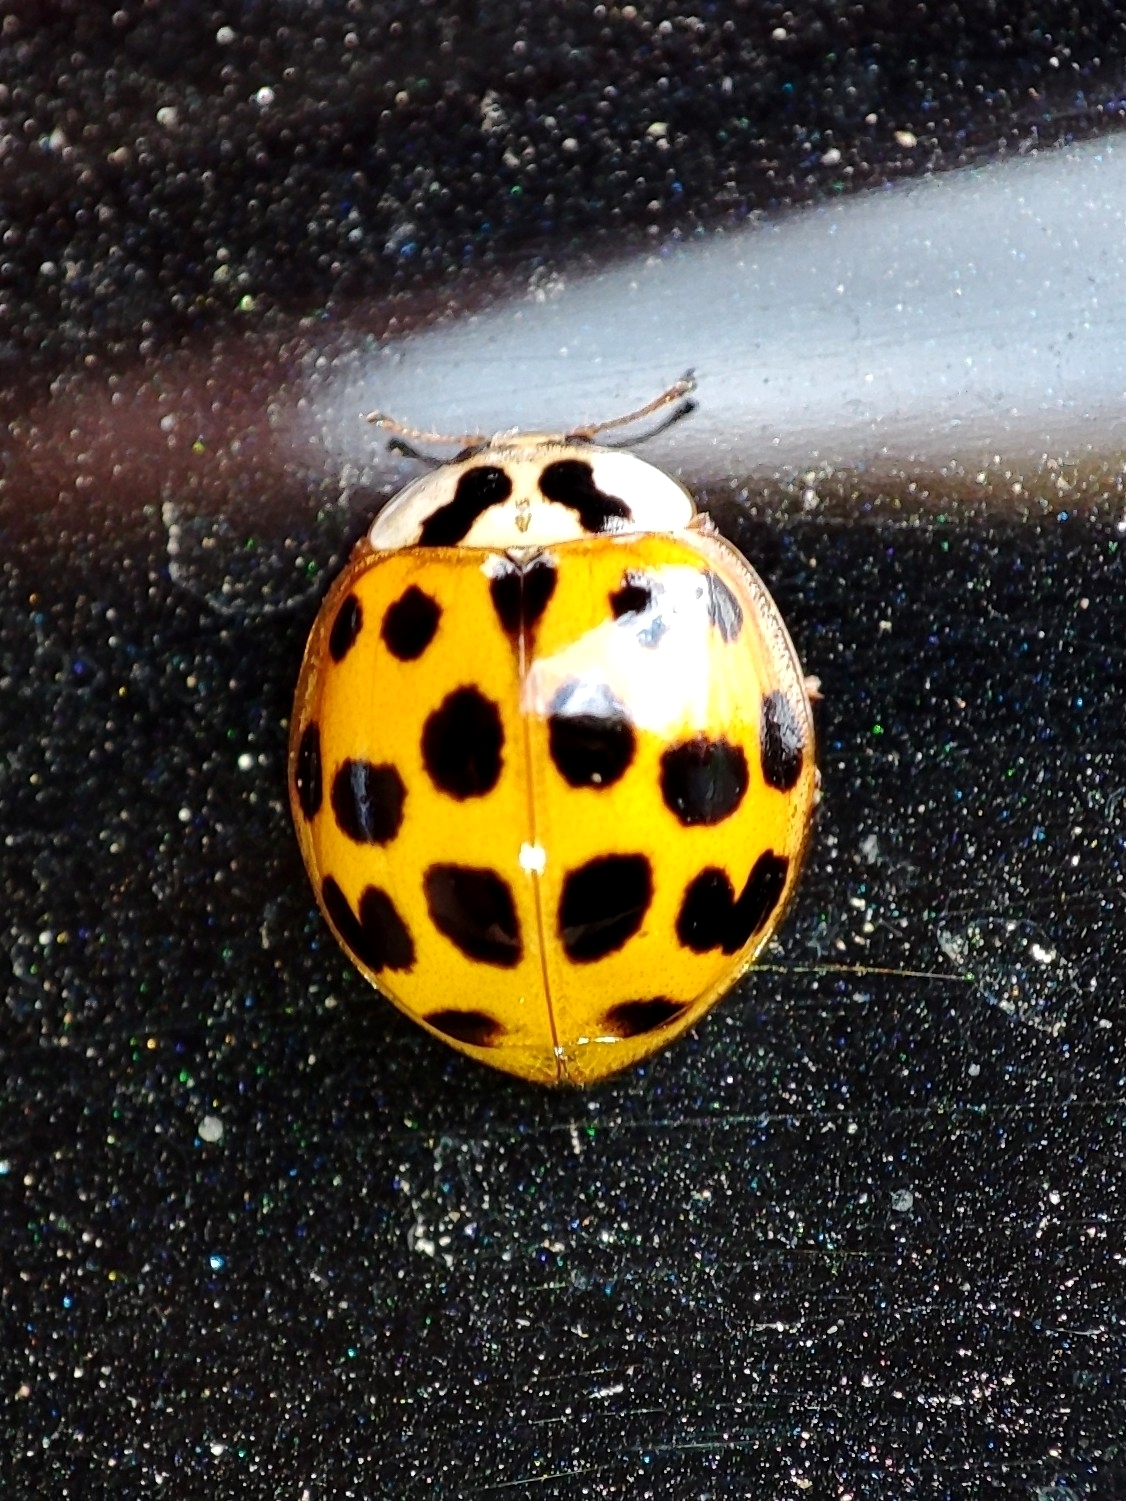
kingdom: Animalia
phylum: Arthropoda
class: Insecta
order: Coleoptera
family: Coccinellidae
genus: Harmonia
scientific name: Harmonia axyridis
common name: Harlequin ladybird
